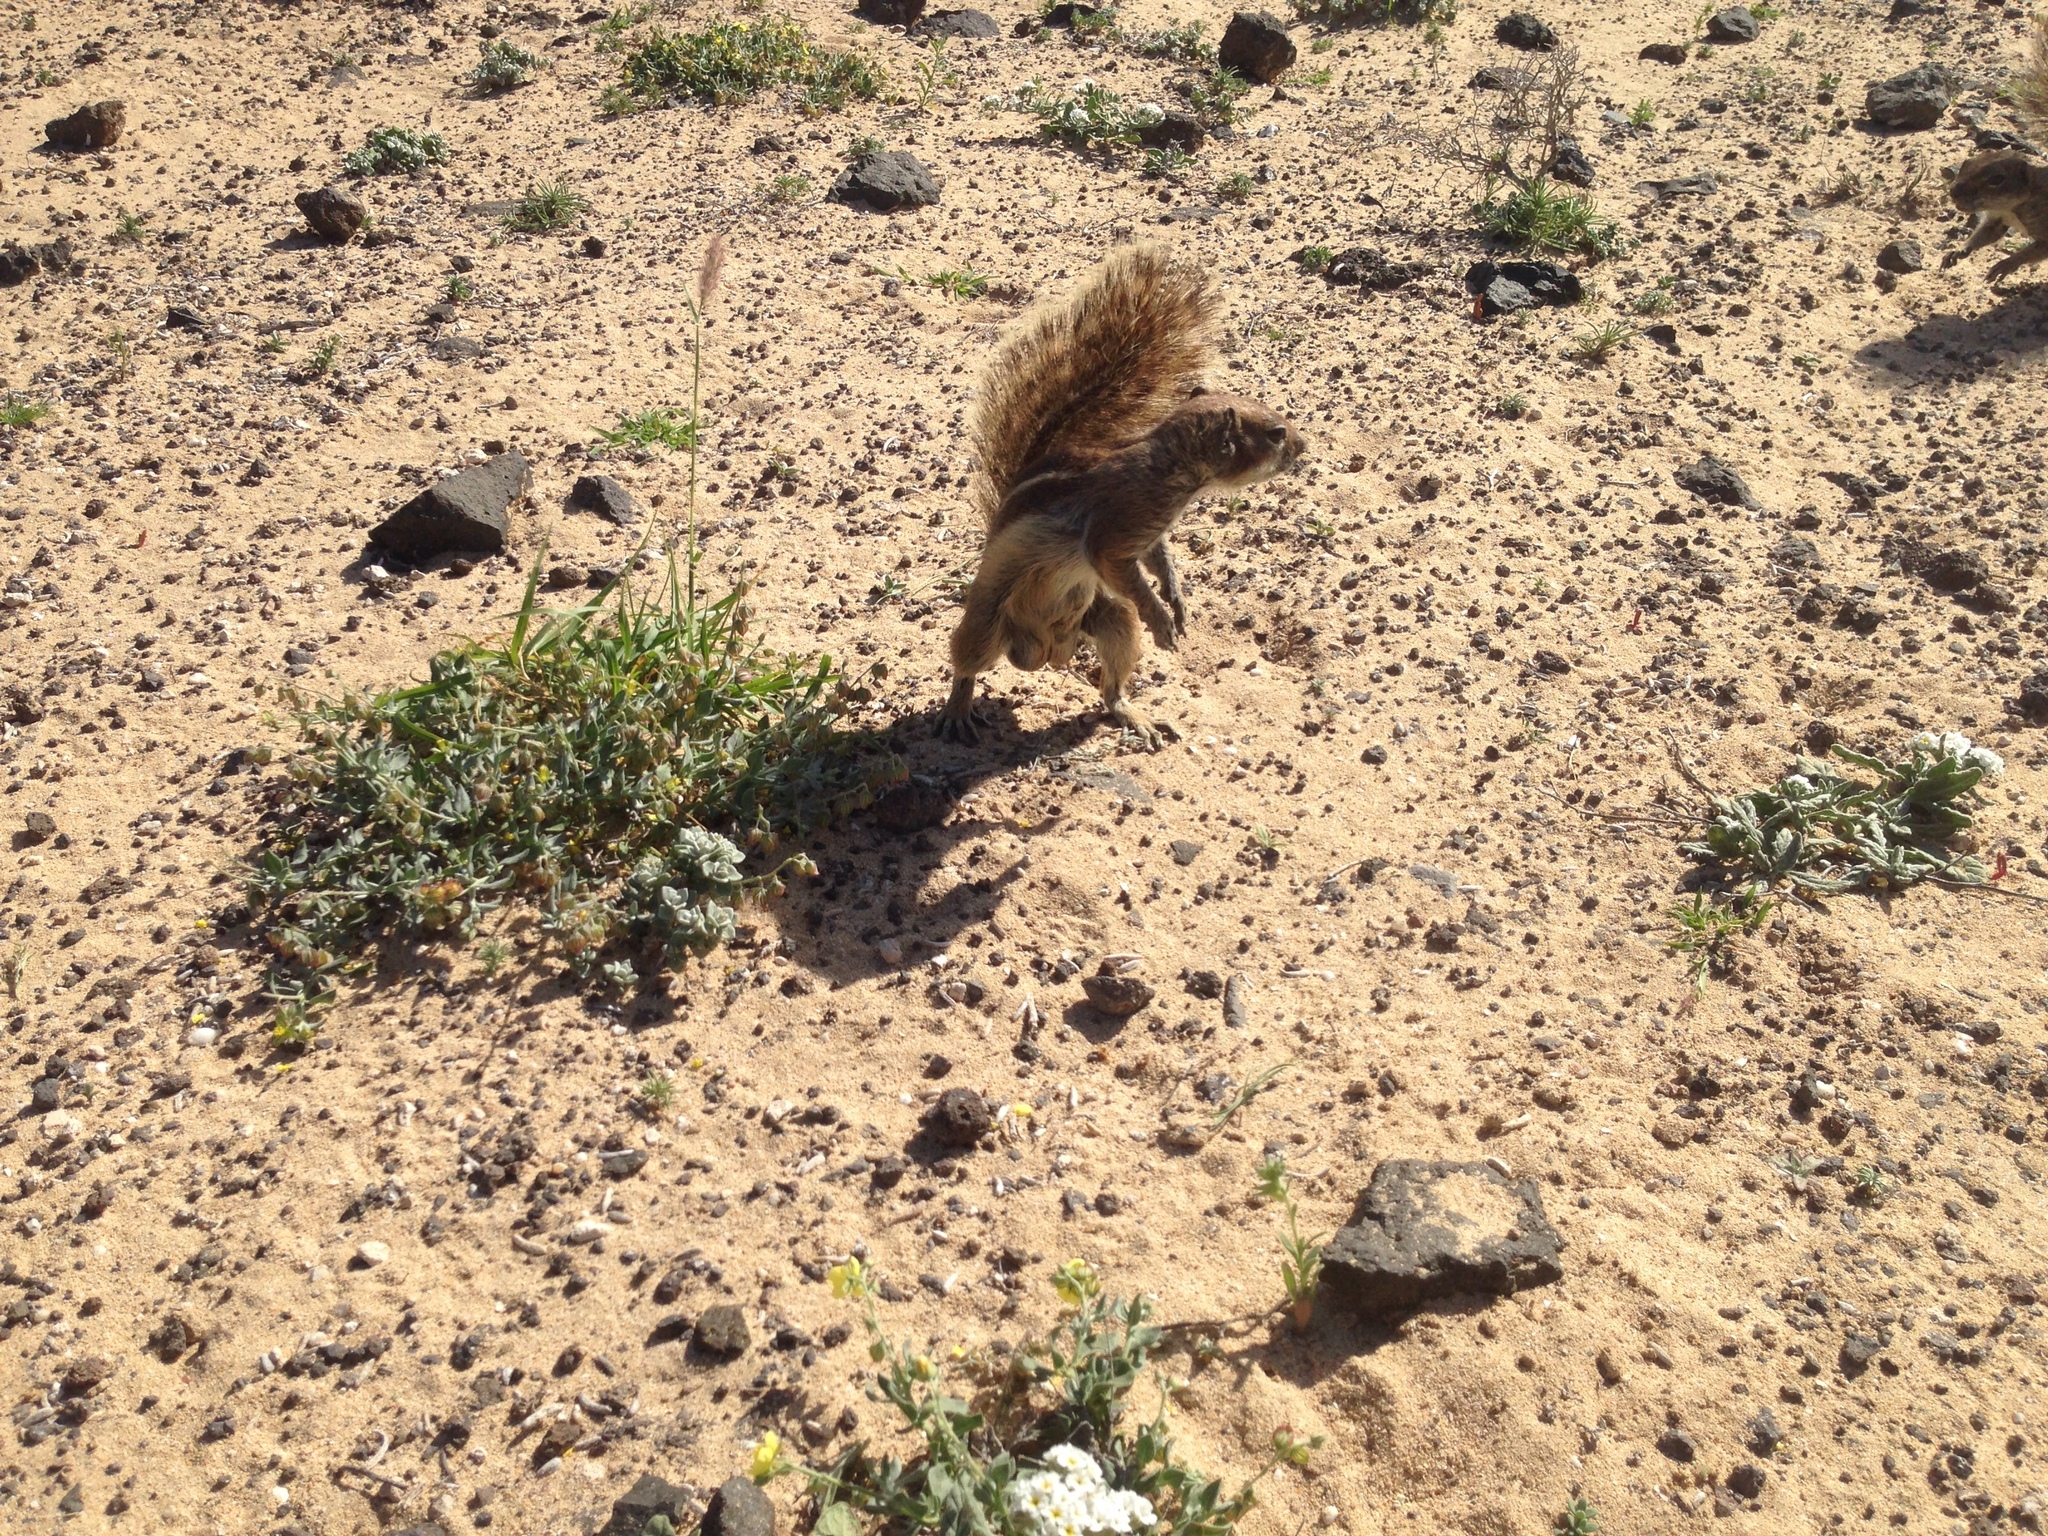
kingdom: Animalia
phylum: Chordata
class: Mammalia
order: Rodentia
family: Sciuridae
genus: Atlantoxerus
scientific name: Atlantoxerus getulus
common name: Barbary ground squirrel
